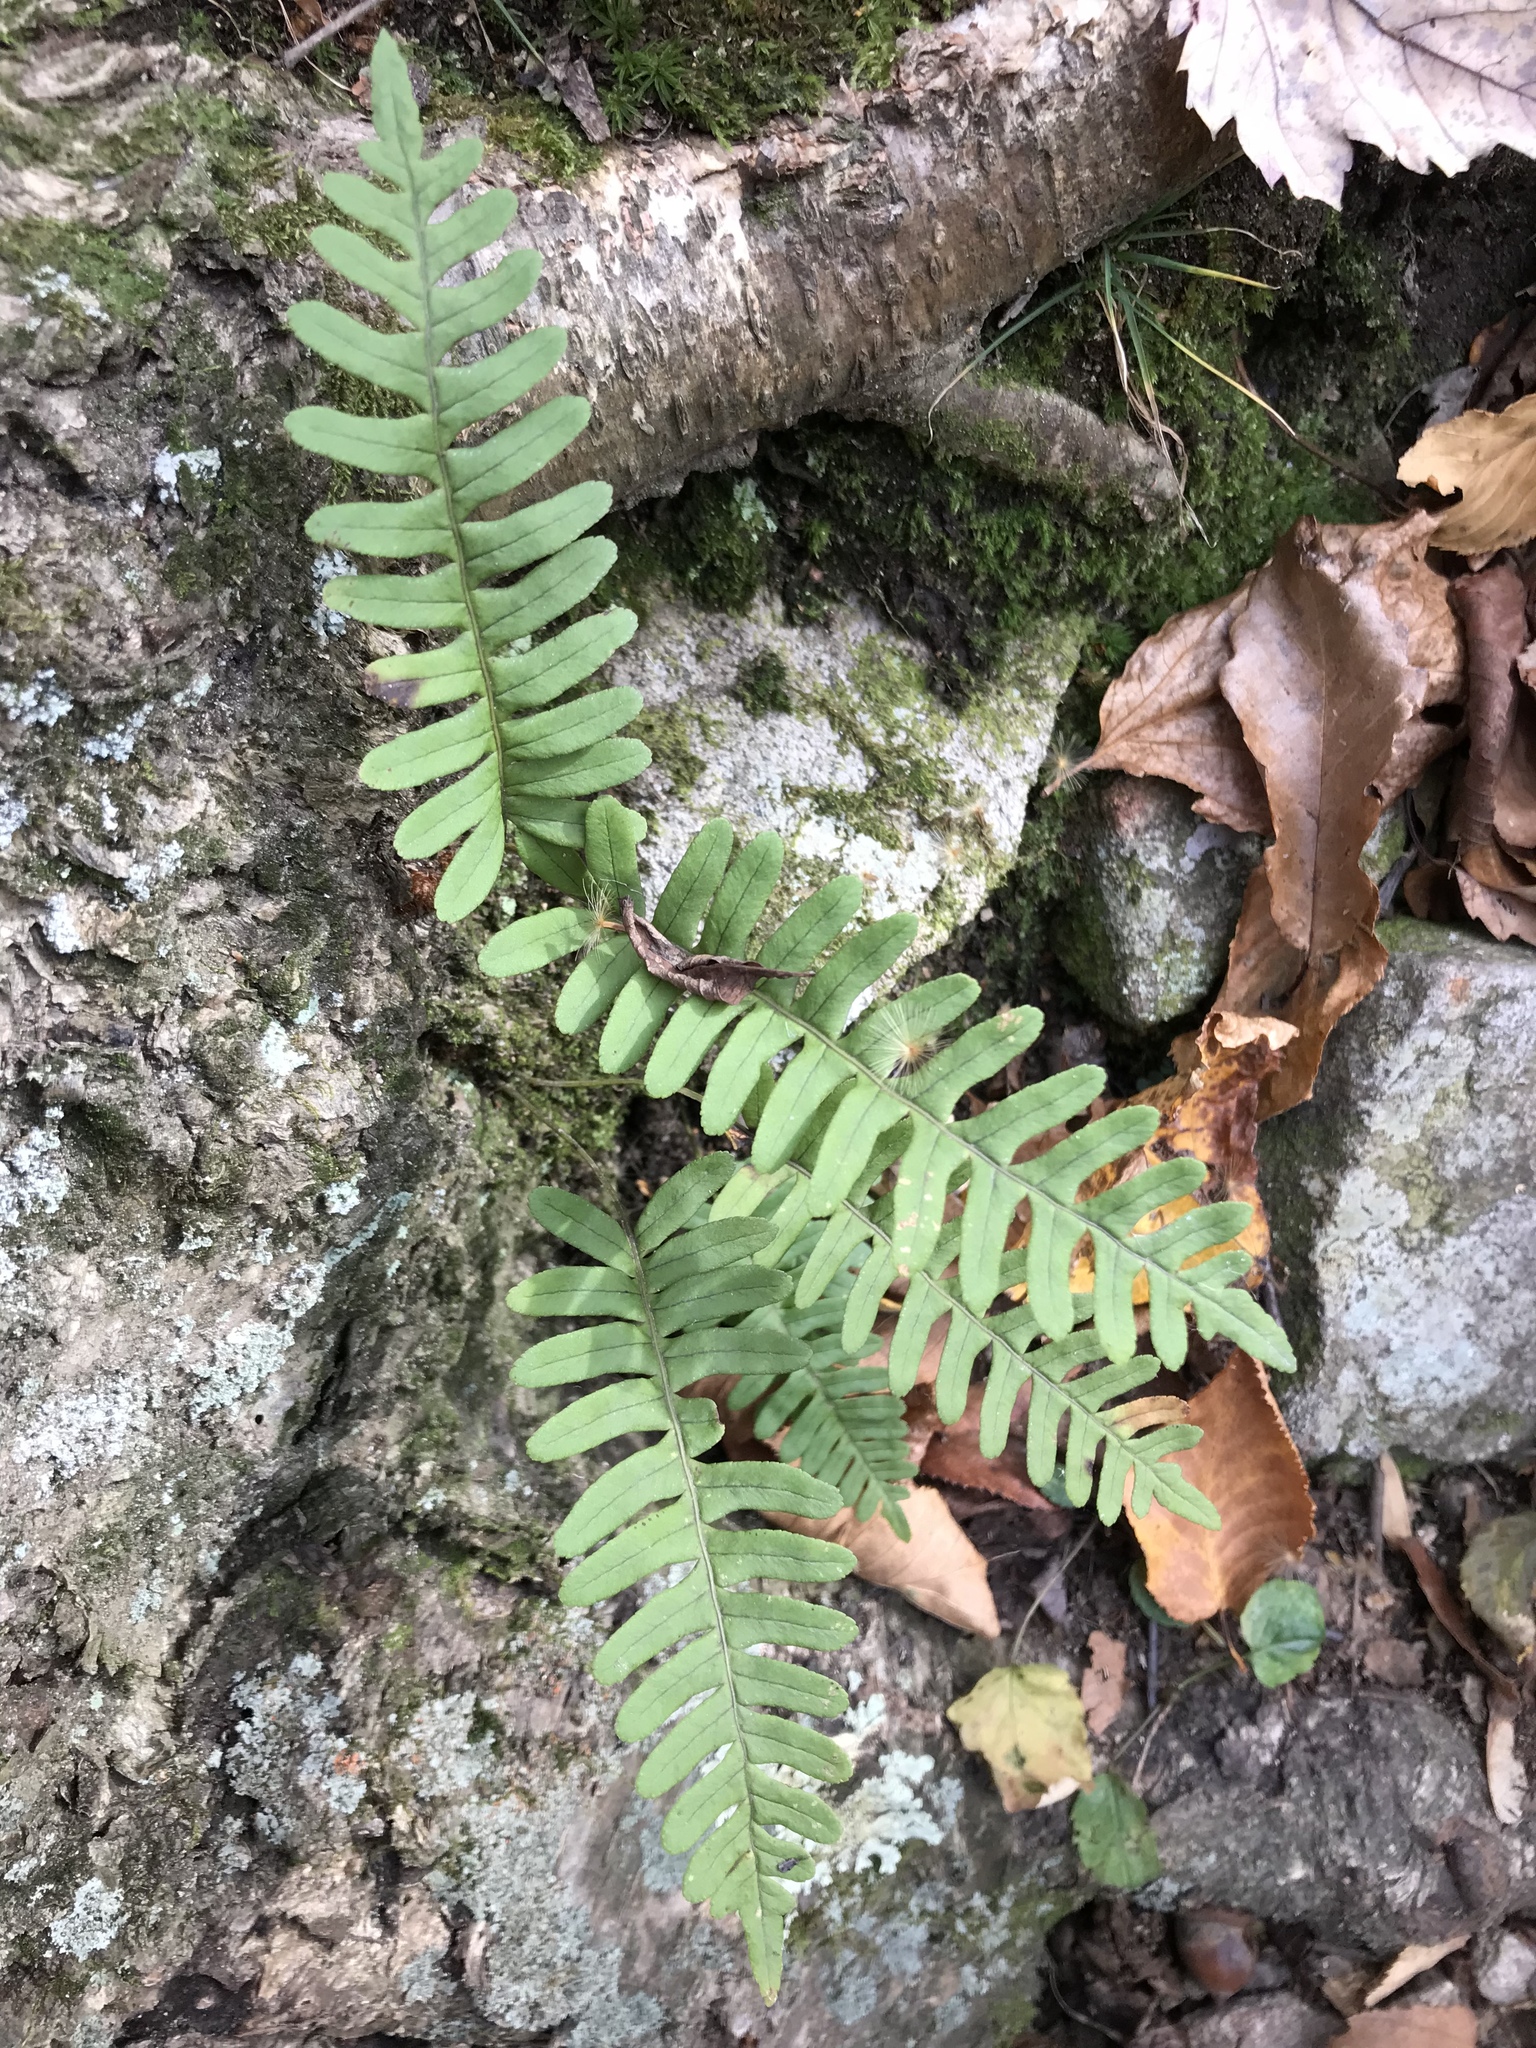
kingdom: Plantae
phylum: Tracheophyta
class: Polypodiopsida
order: Polypodiales
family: Polypodiaceae
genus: Polypodium
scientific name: Polypodium virginianum
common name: American wall fern
